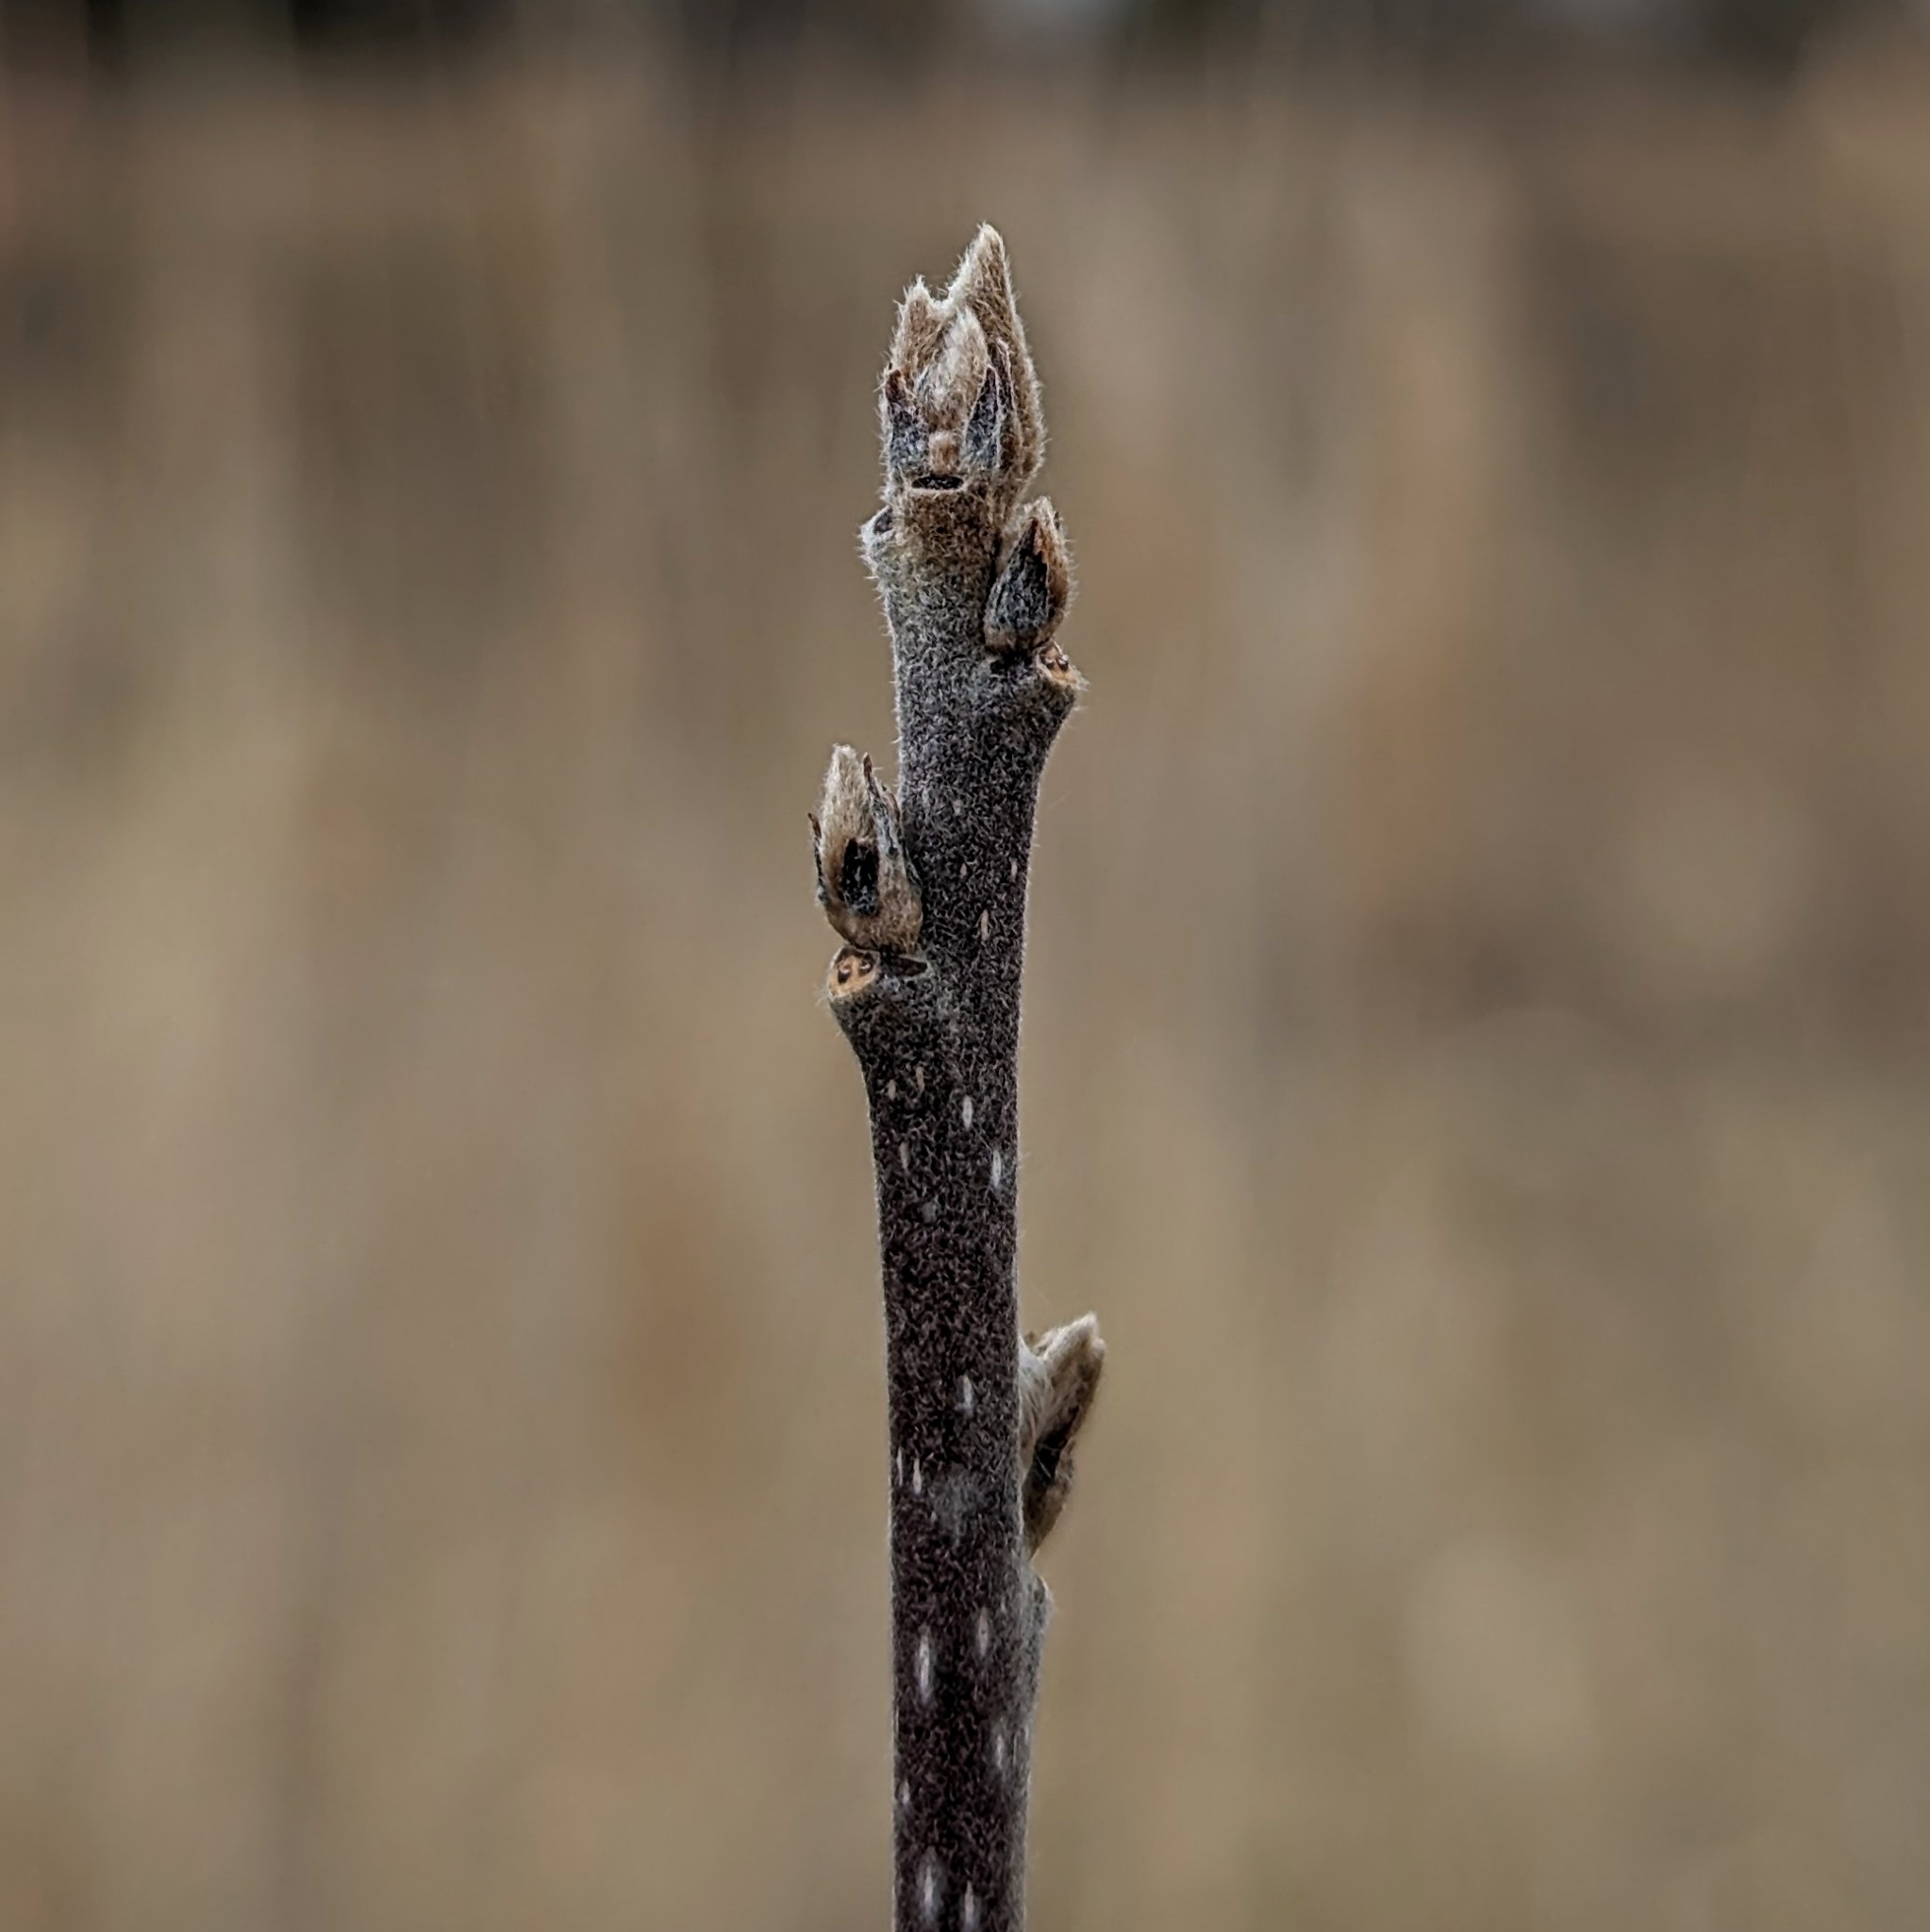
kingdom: Plantae
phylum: Tracheophyta
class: Magnoliopsida
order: Rosales
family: Rhamnaceae
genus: Frangula
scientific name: Frangula alnus
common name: Alder buckthorn
